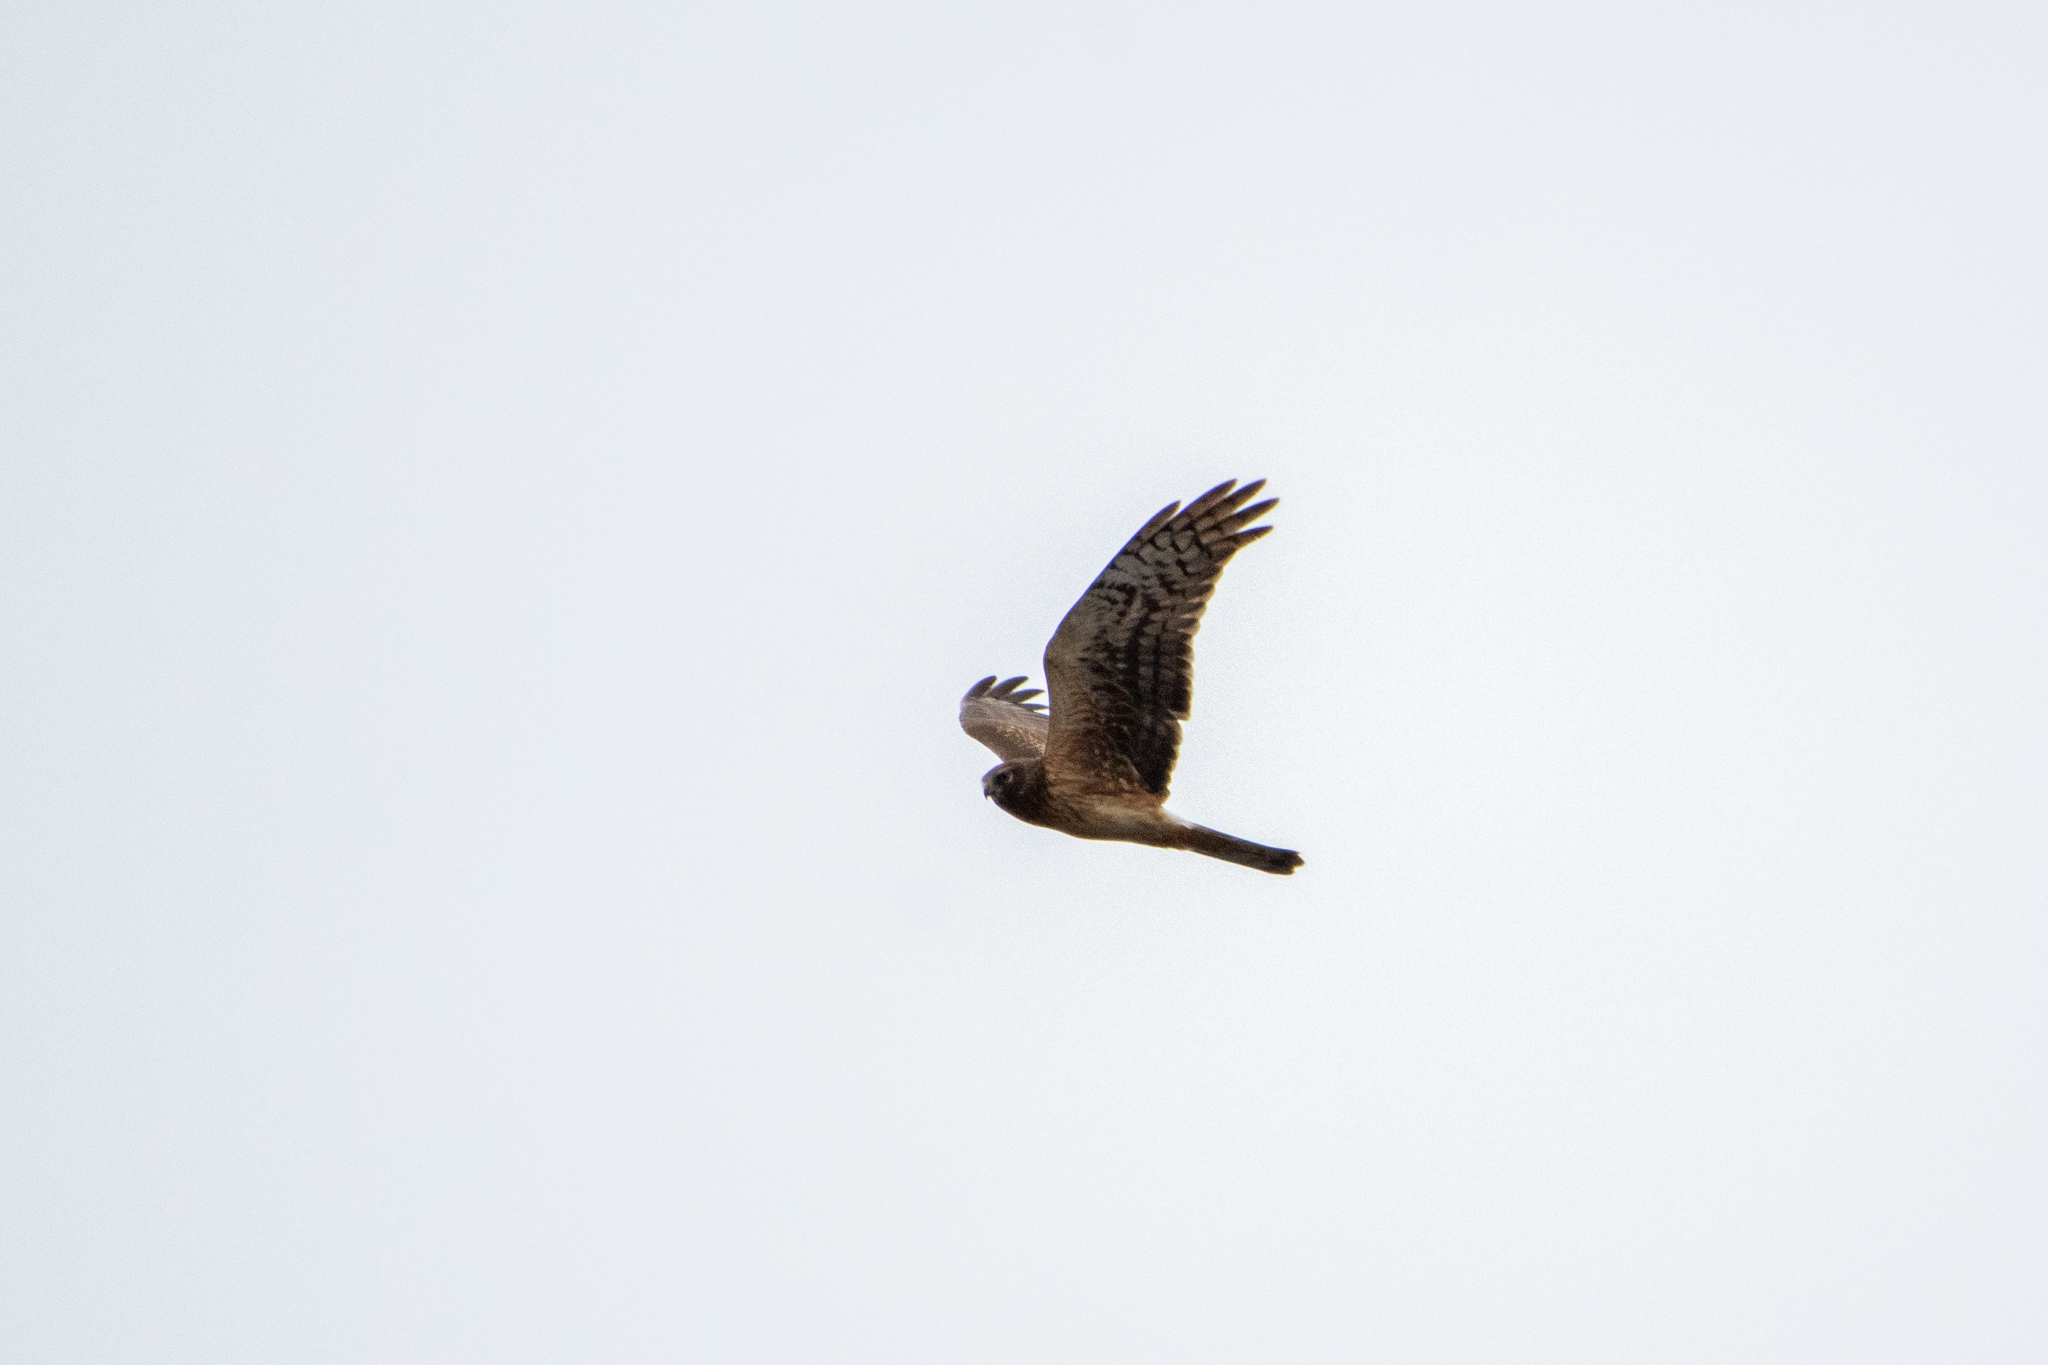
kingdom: Animalia
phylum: Chordata
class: Aves
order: Accipitriformes
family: Accipitridae
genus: Circus
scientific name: Circus cyaneus
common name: Hen harrier
